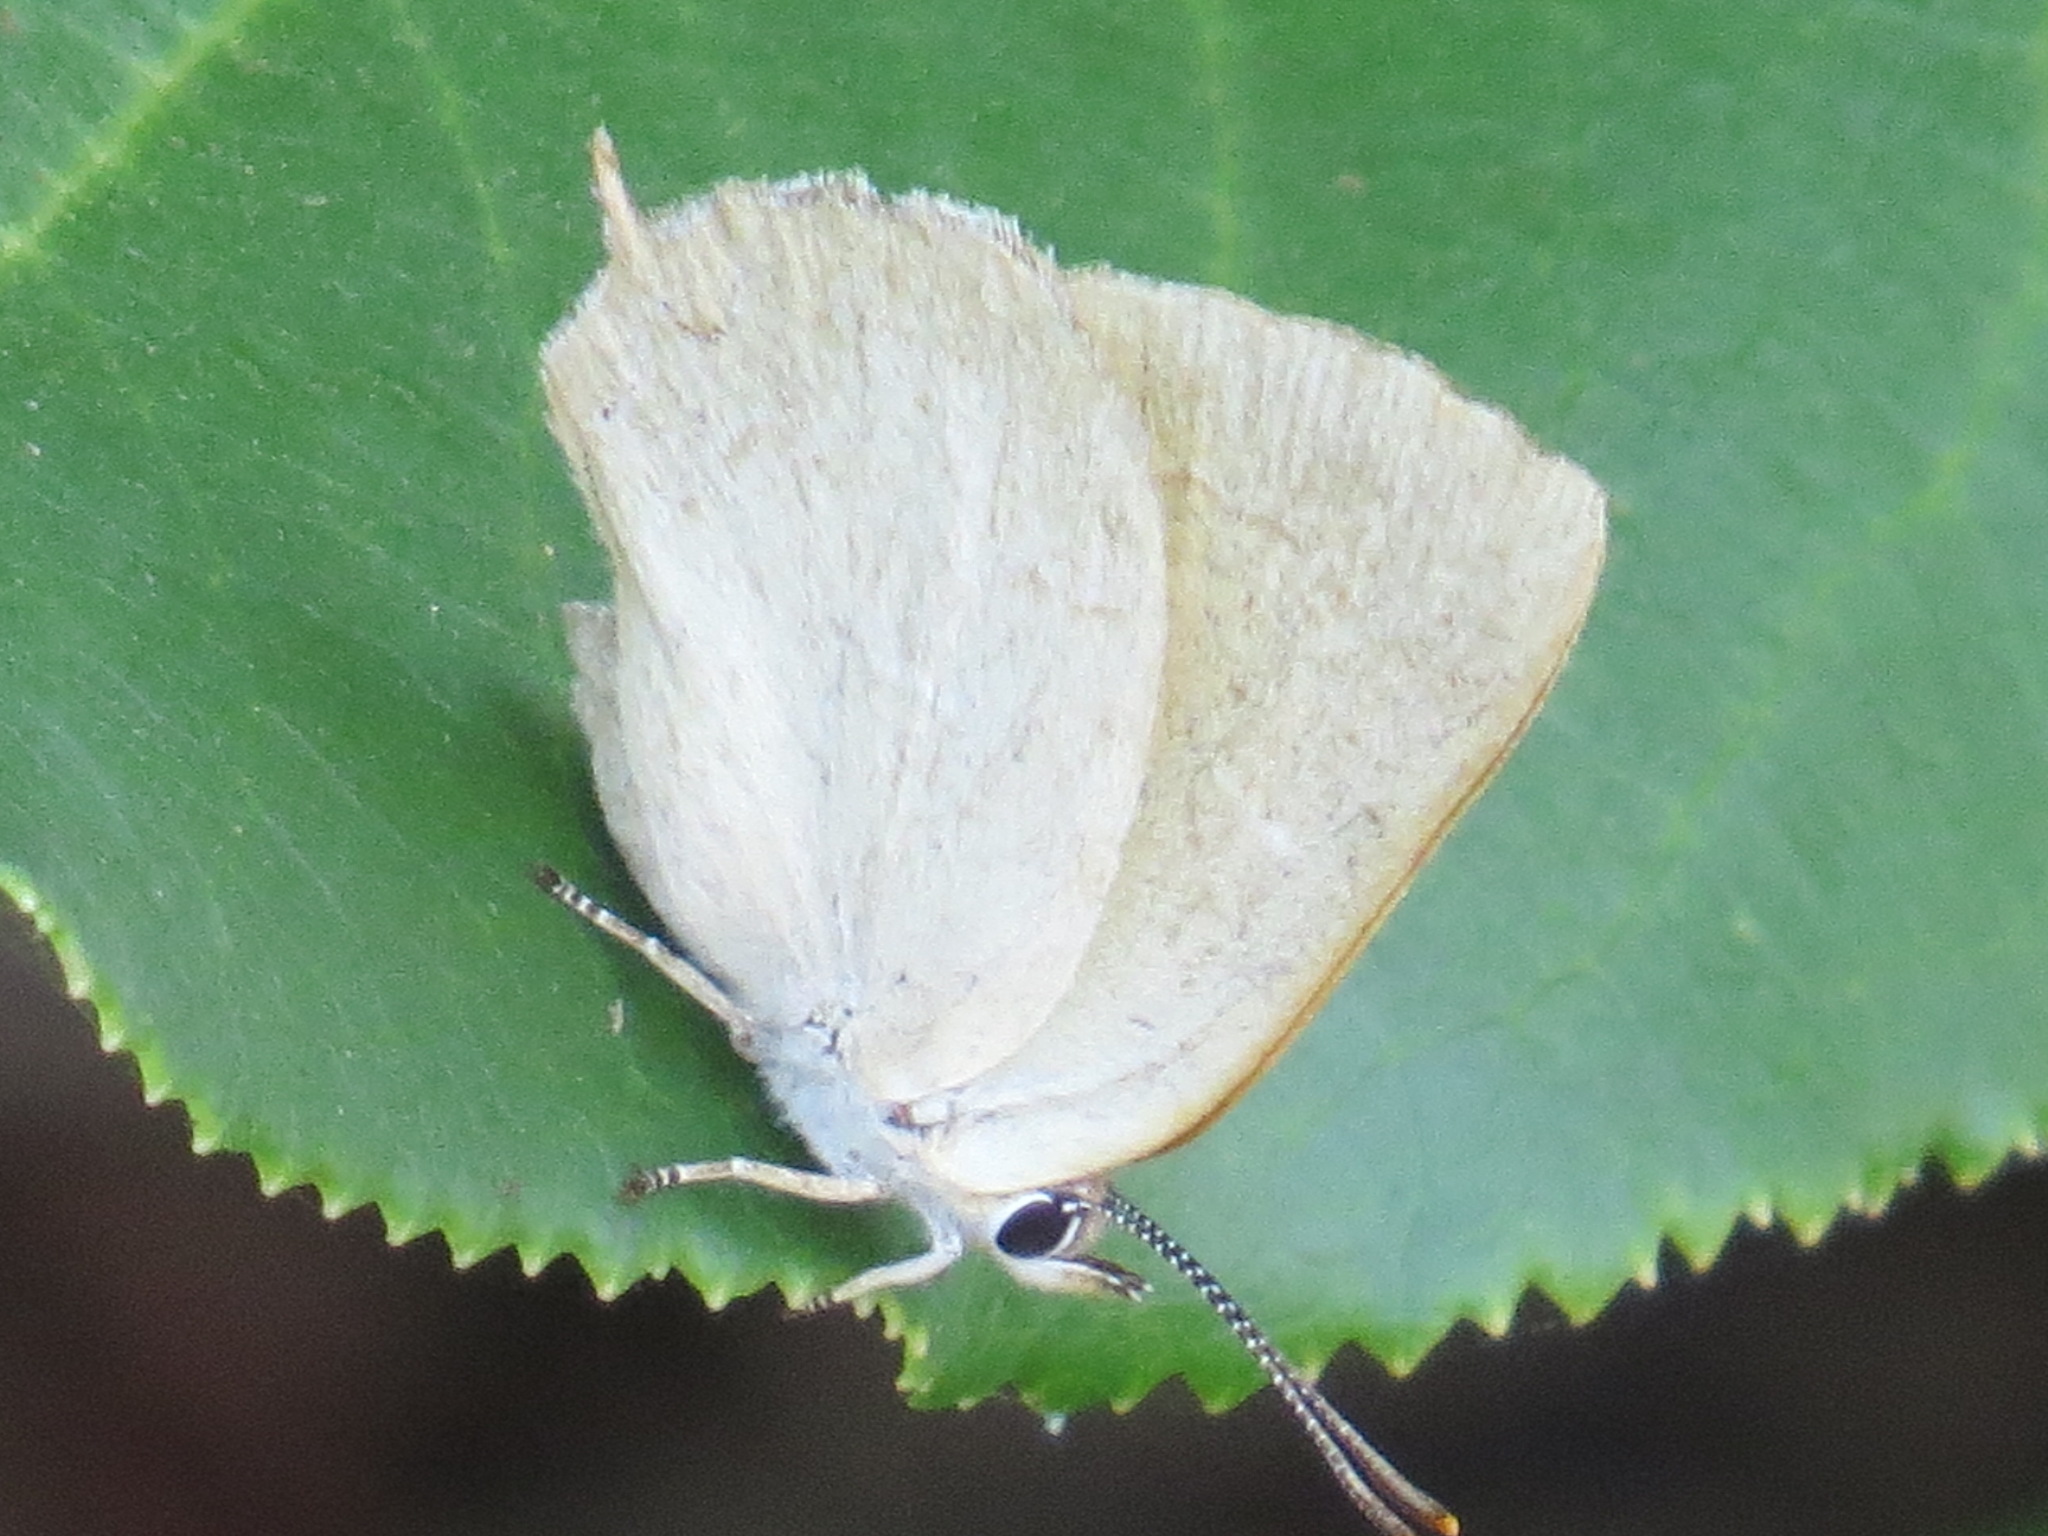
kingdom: Animalia
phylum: Arthropoda
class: Insecta
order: Lepidoptera
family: Lycaenidae
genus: Habrodais
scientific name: Habrodais grunus
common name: Golden hairstreak
